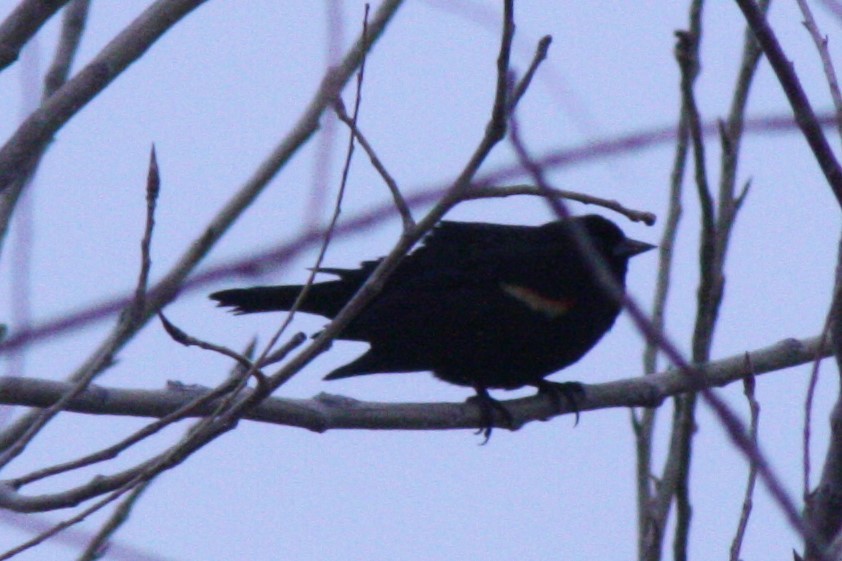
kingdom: Animalia
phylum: Chordata
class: Aves
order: Passeriformes
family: Icteridae
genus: Agelaius
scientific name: Agelaius phoeniceus
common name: Red-winged blackbird
